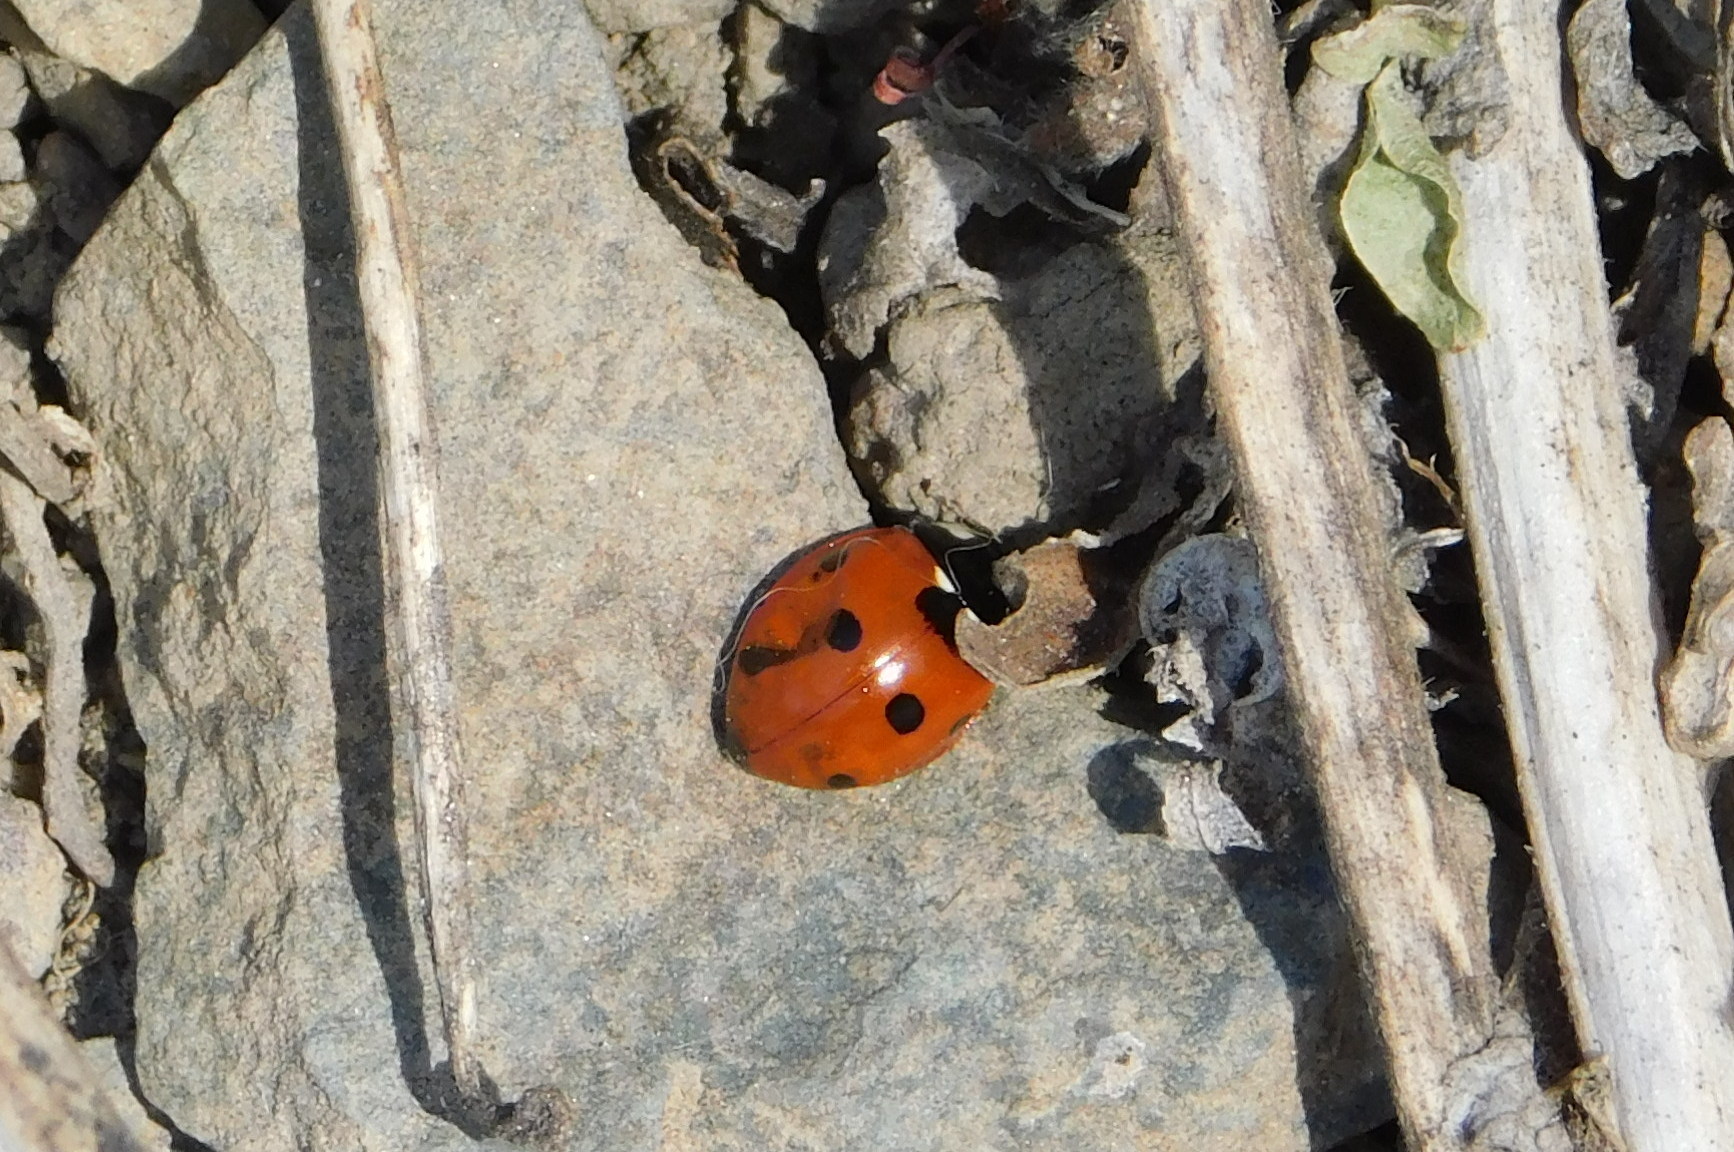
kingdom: Animalia
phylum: Arthropoda
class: Insecta
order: Coleoptera
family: Coccinellidae
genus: Coccinella
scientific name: Coccinella septempunctata
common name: Sevenspotted lady beetle
